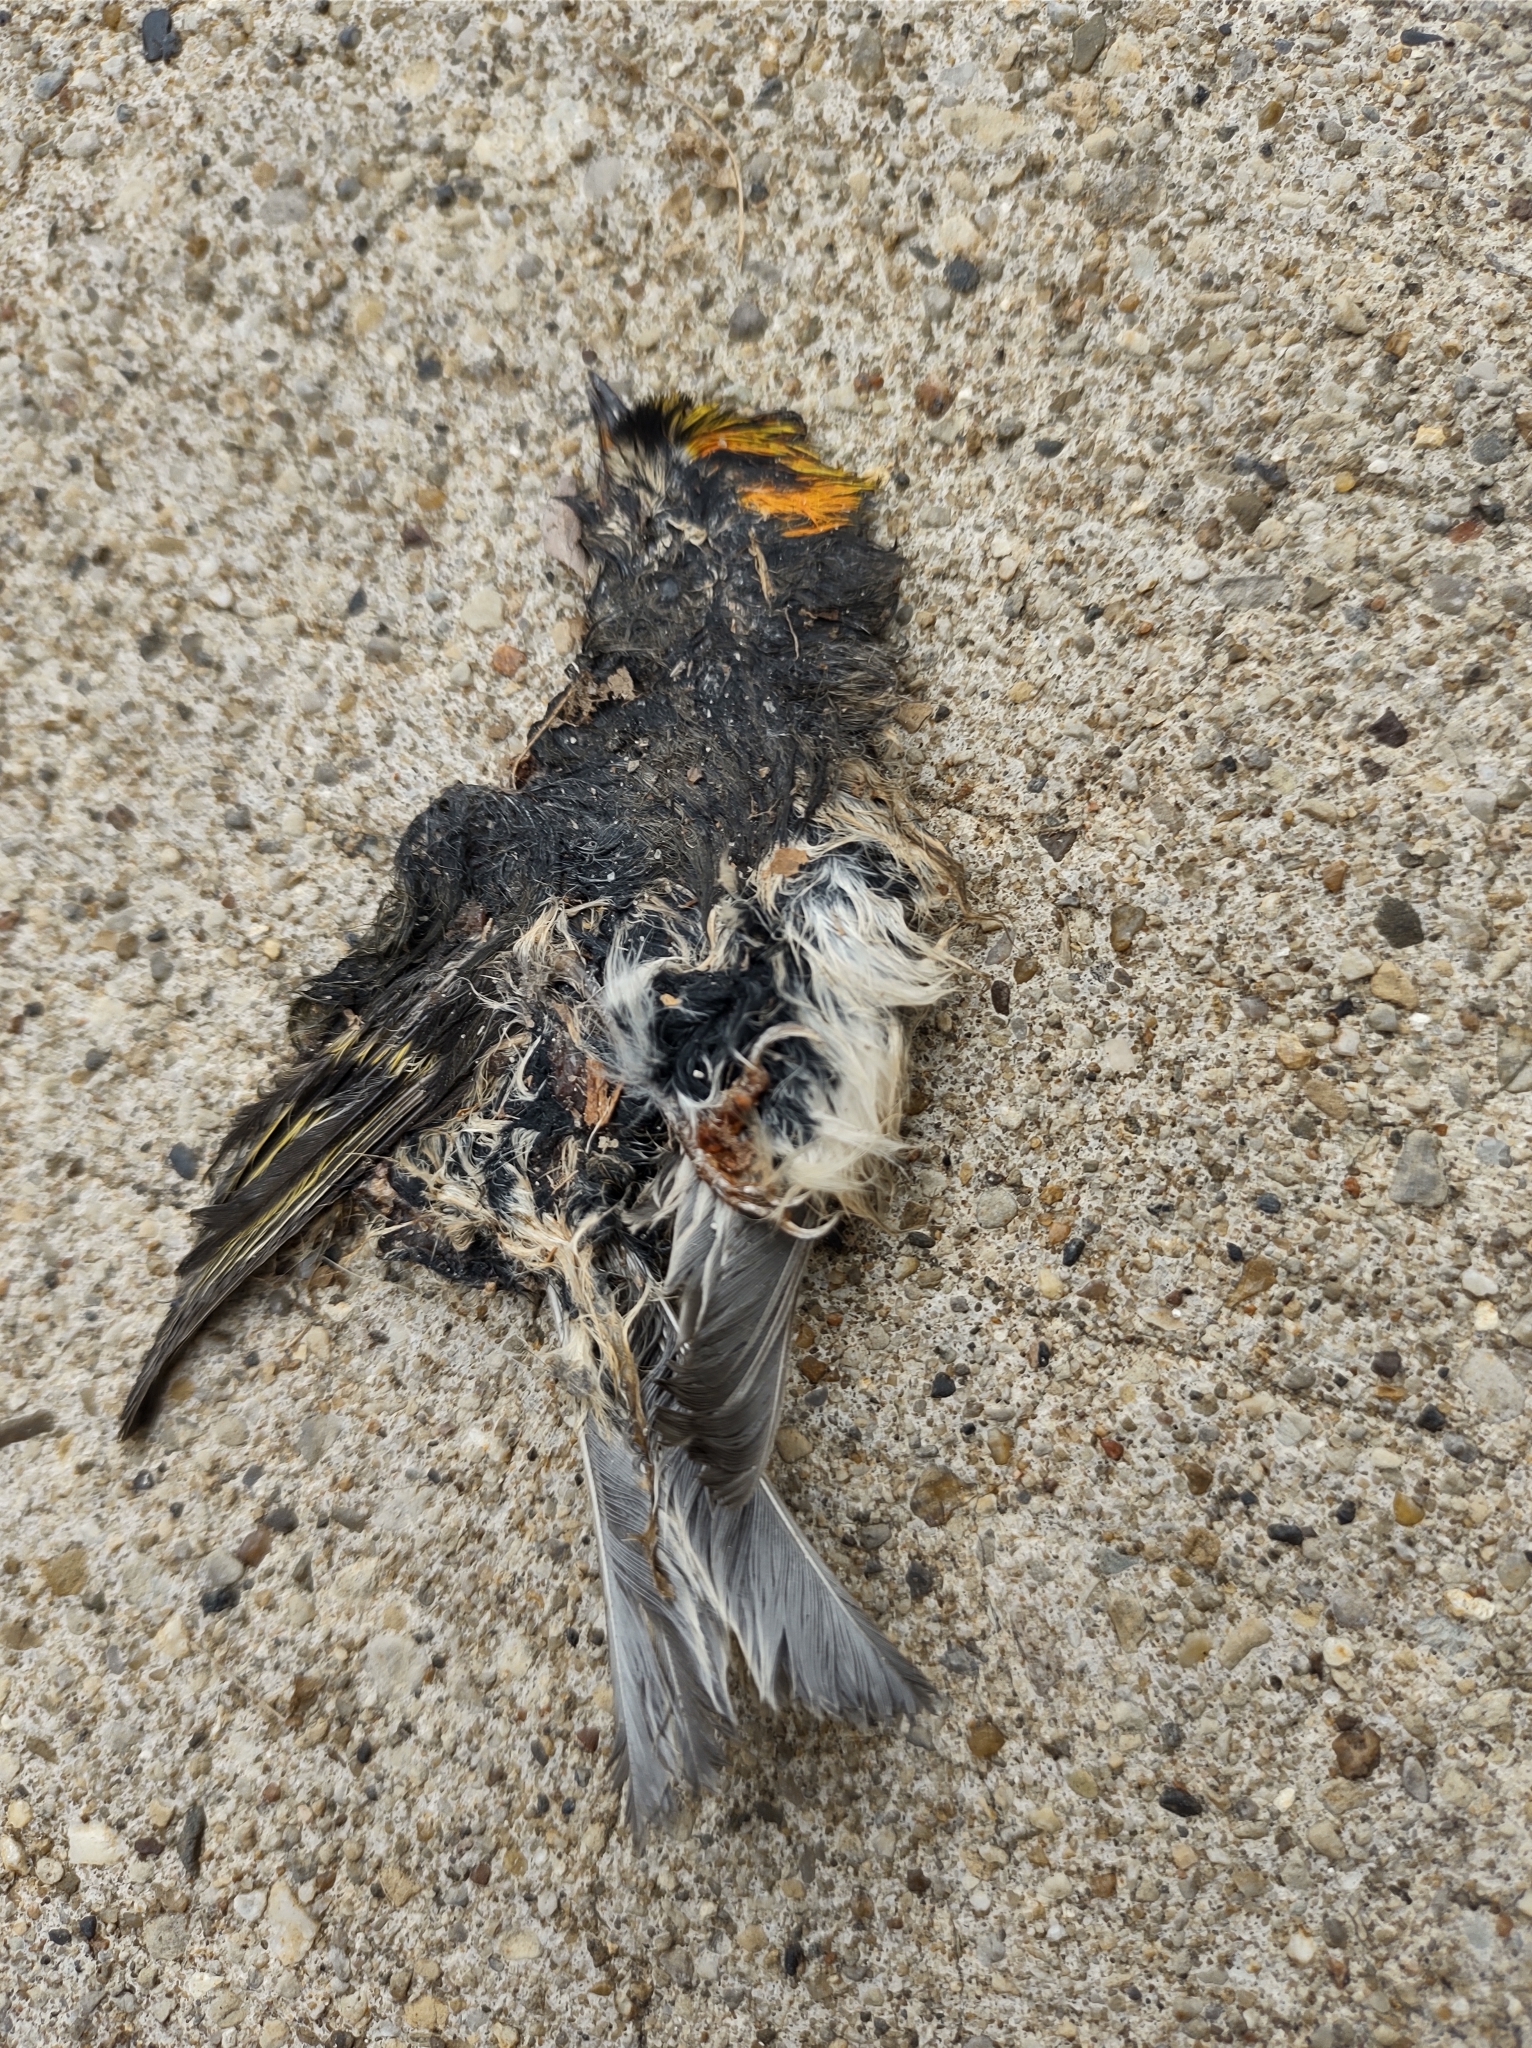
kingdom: Animalia
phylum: Chordata
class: Aves
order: Passeriformes
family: Regulidae
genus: Regulus
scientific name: Regulus satrapa
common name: Golden-crowned kinglet
